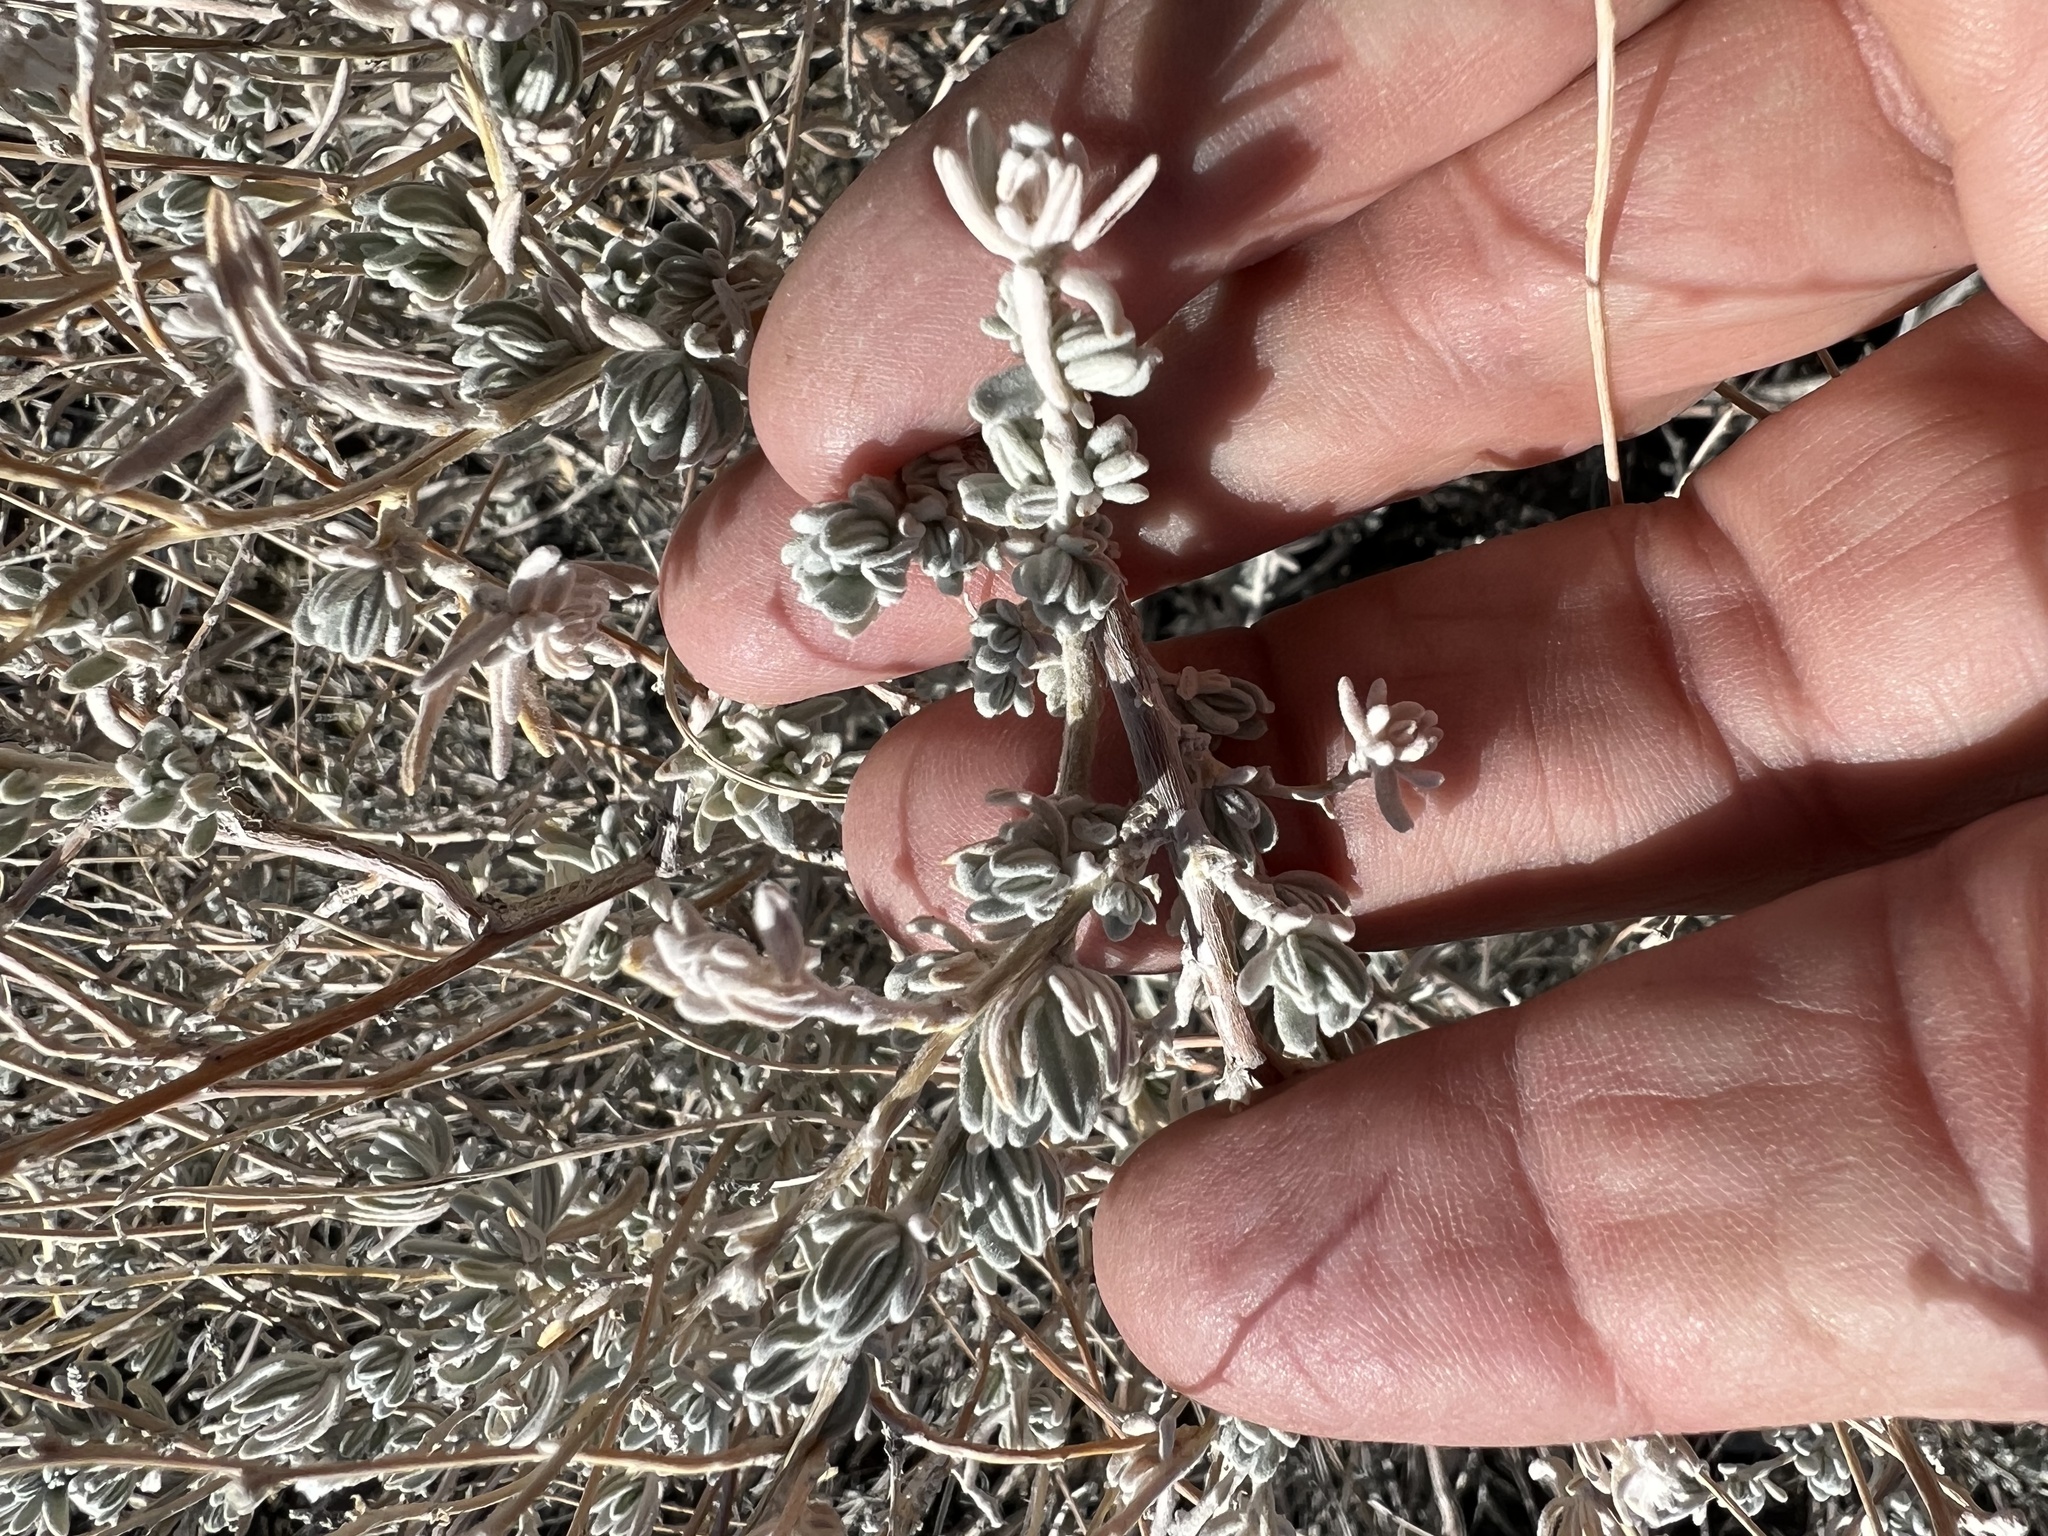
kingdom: Plantae
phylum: Tracheophyta
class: Magnoliopsida
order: Caryophyllales
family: Amaranthaceae
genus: Krascheninnikovia
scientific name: Krascheninnikovia lanata
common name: Winterfat
